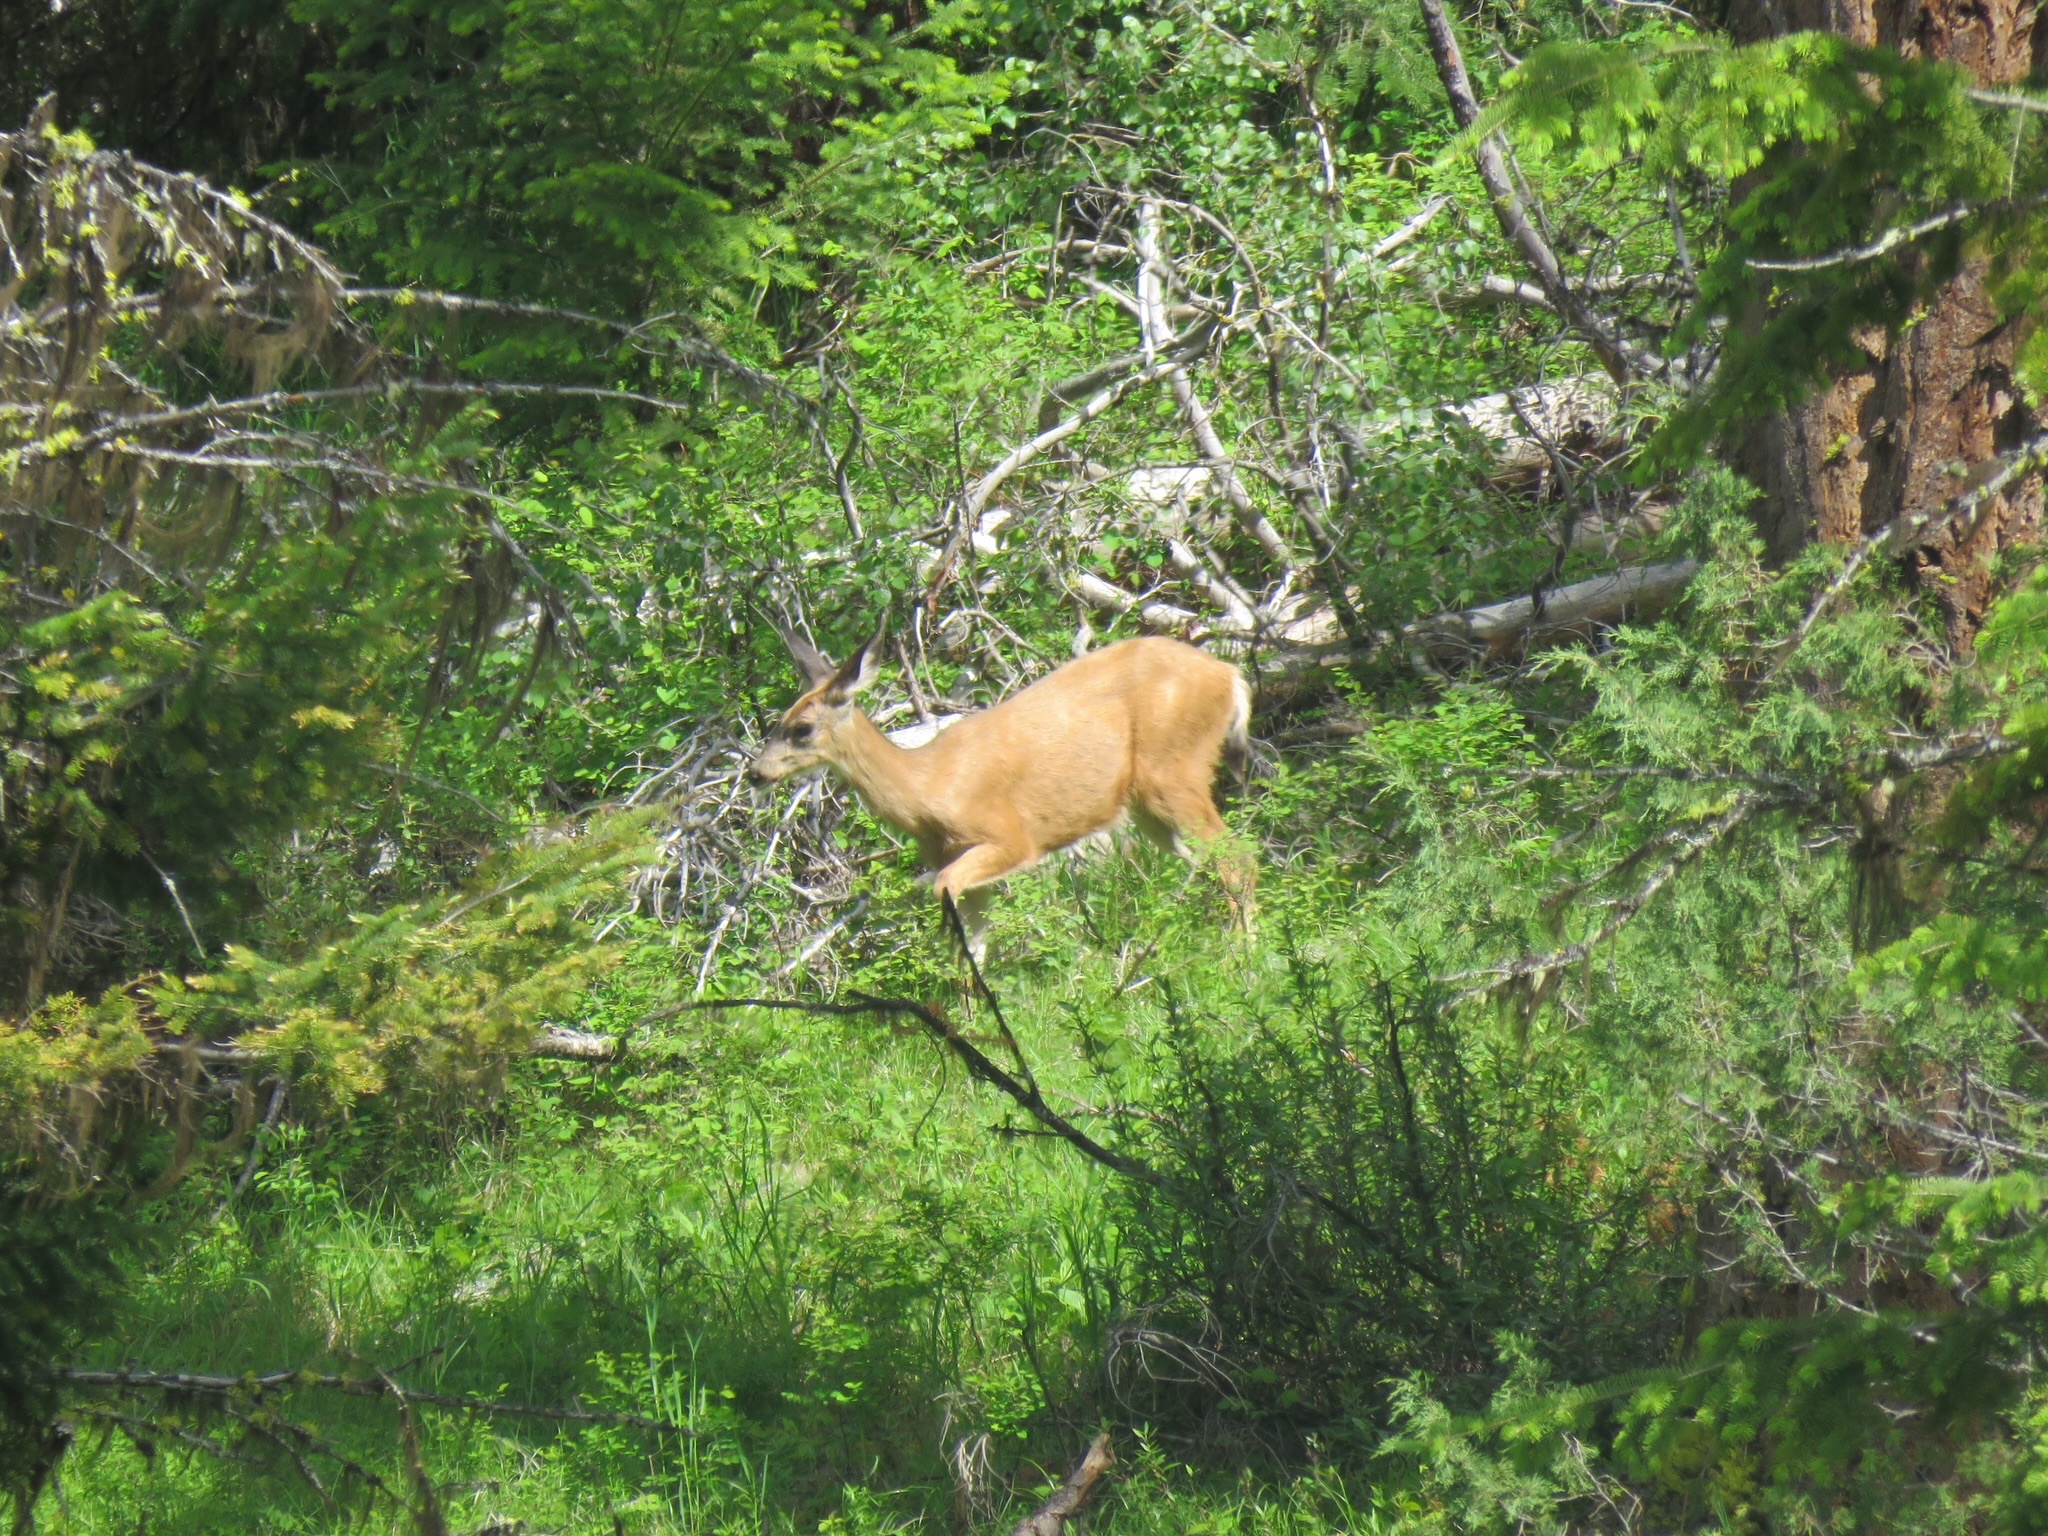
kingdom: Animalia
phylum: Chordata
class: Mammalia
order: Artiodactyla
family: Cervidae
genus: Odocoileus
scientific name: Odocoileus hemionus
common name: Mule deer
